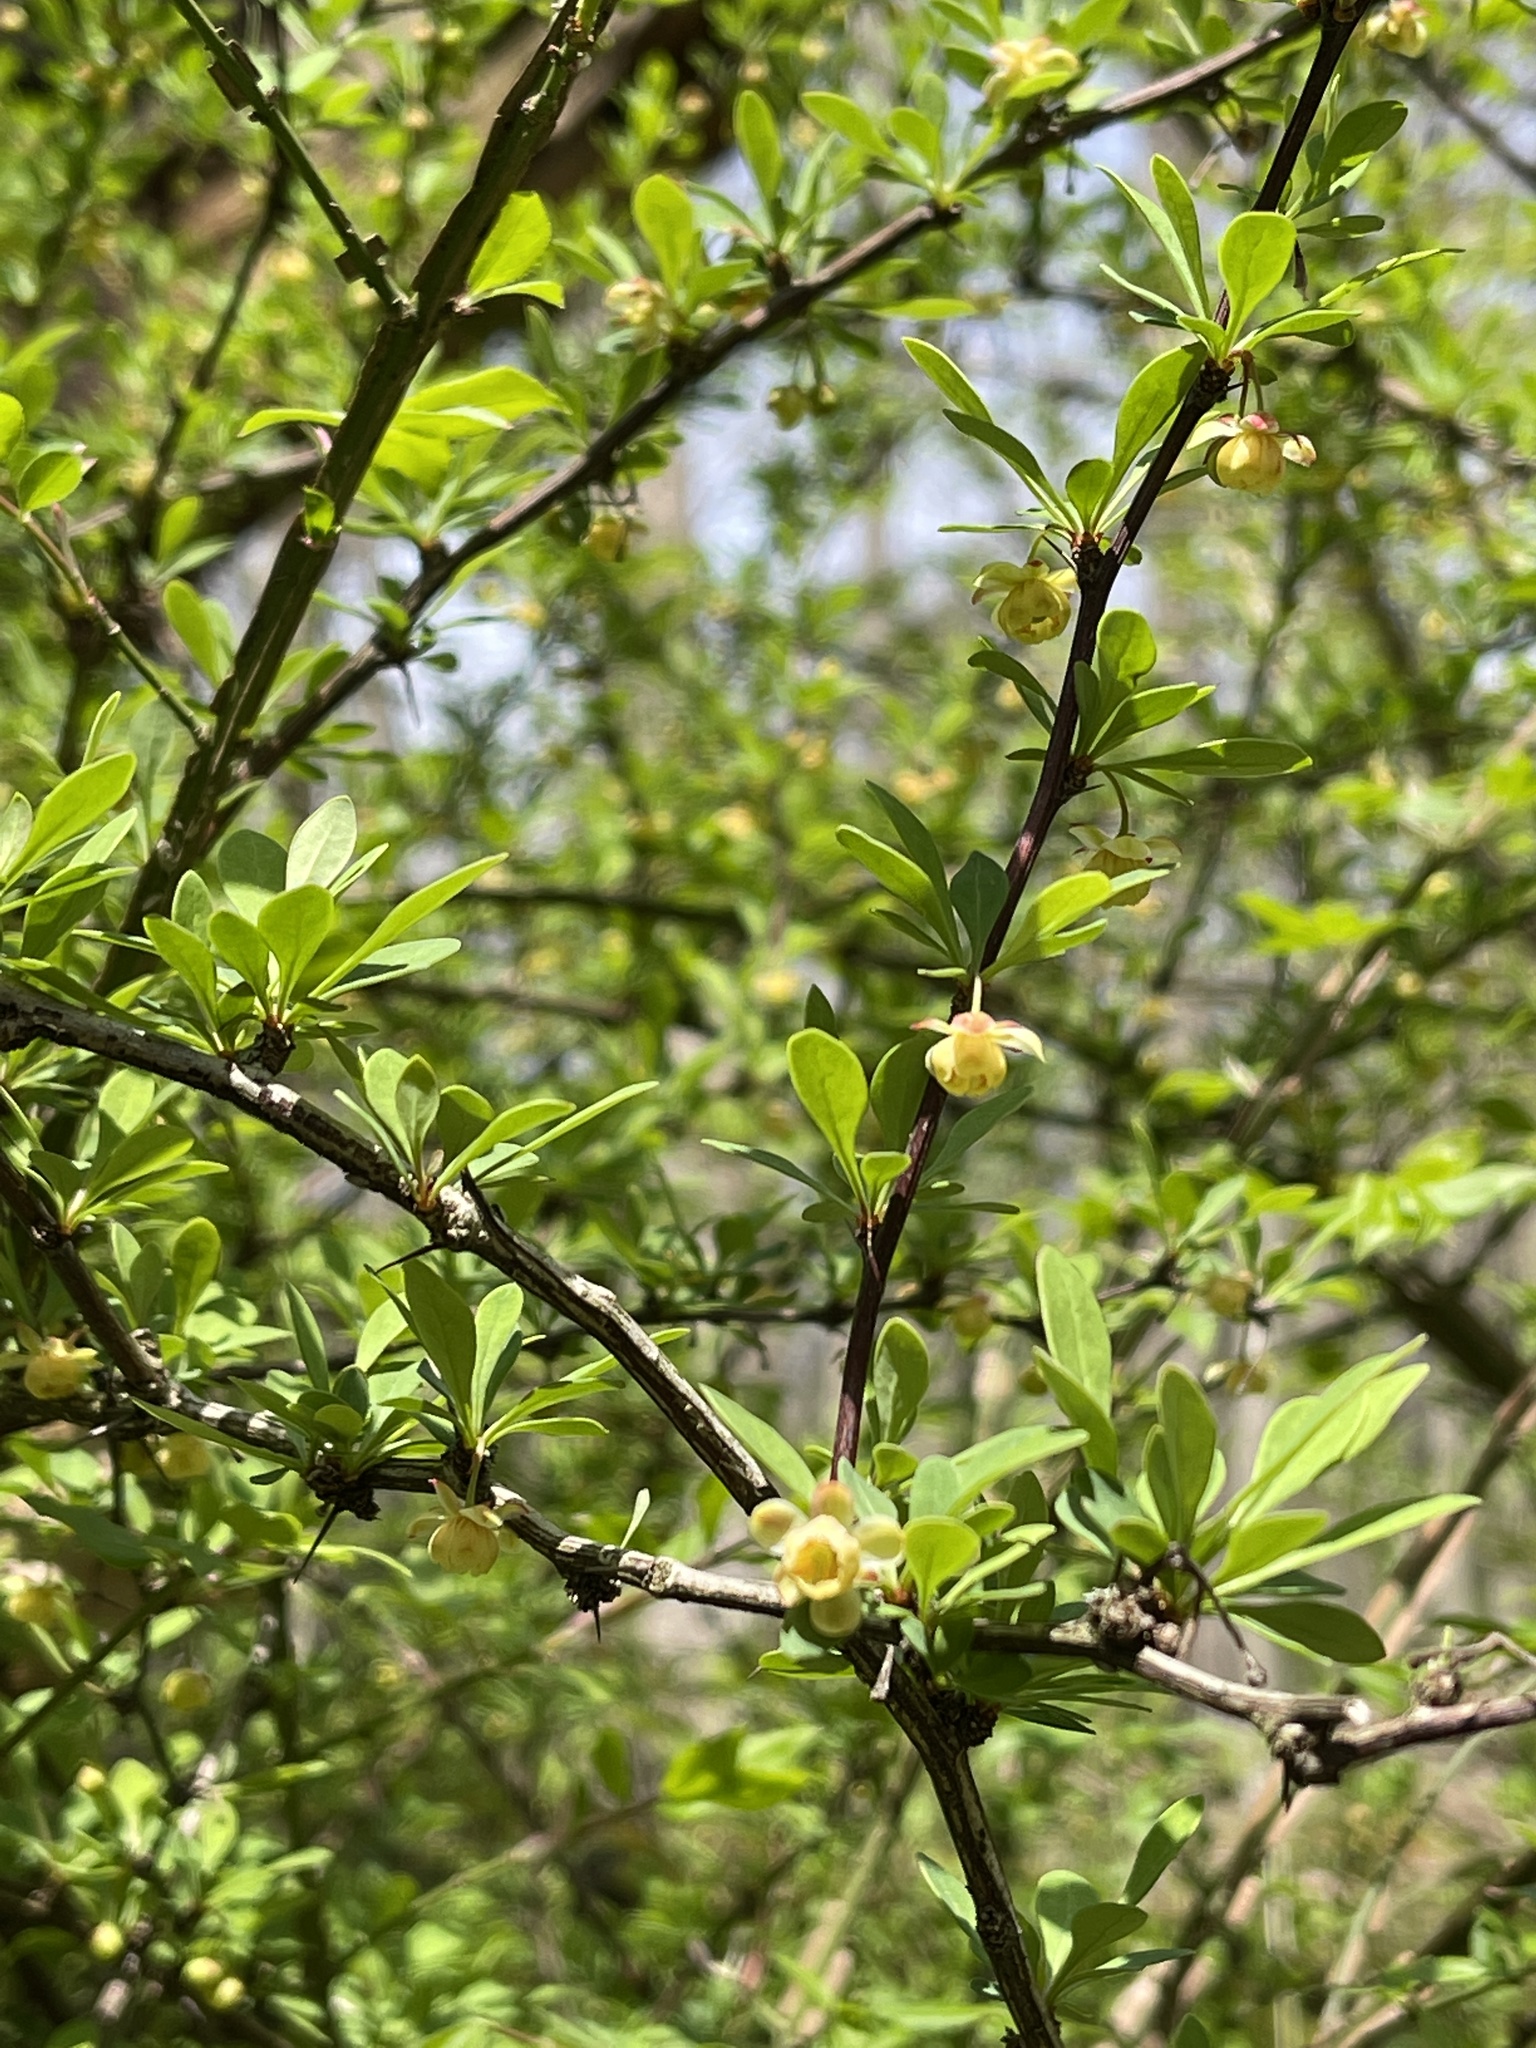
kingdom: Plantae
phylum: Tracheophyta
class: Magnoliopsida
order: Ranunculales
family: Berberidaceae
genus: Berberis
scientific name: Berberis thunbergii
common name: Japanese barberry
